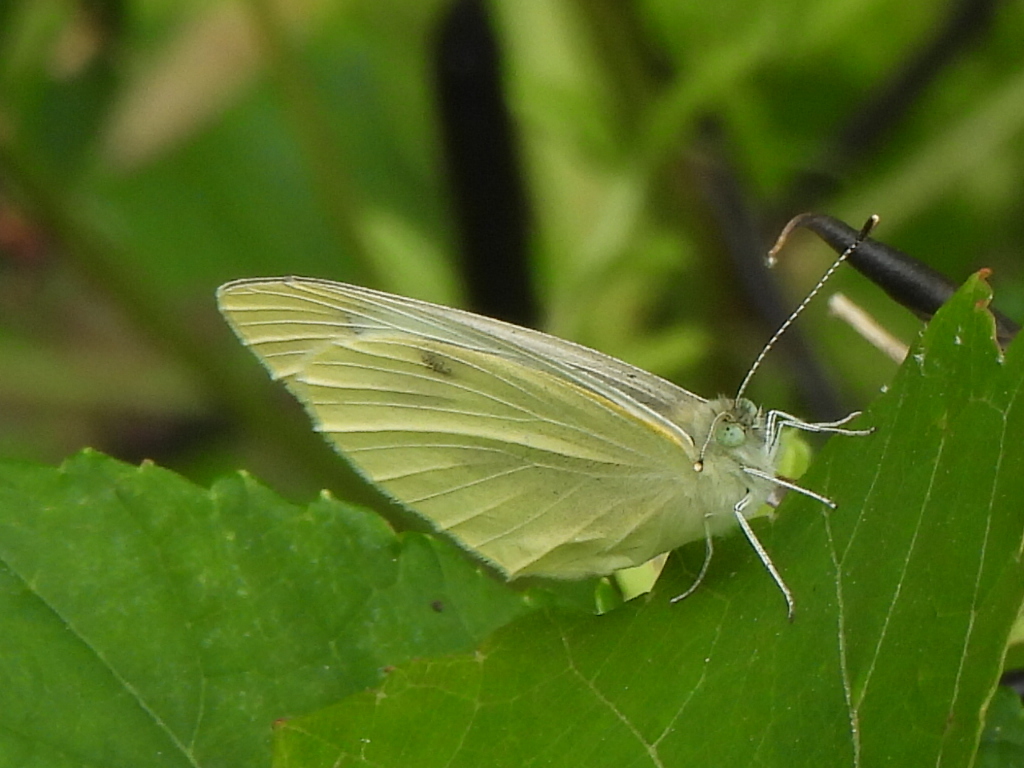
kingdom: Animalia
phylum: Arthropoda
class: Insecta
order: Lepidoptera
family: Pieridae
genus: Pieris
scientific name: Pieris rapae
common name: Small white
